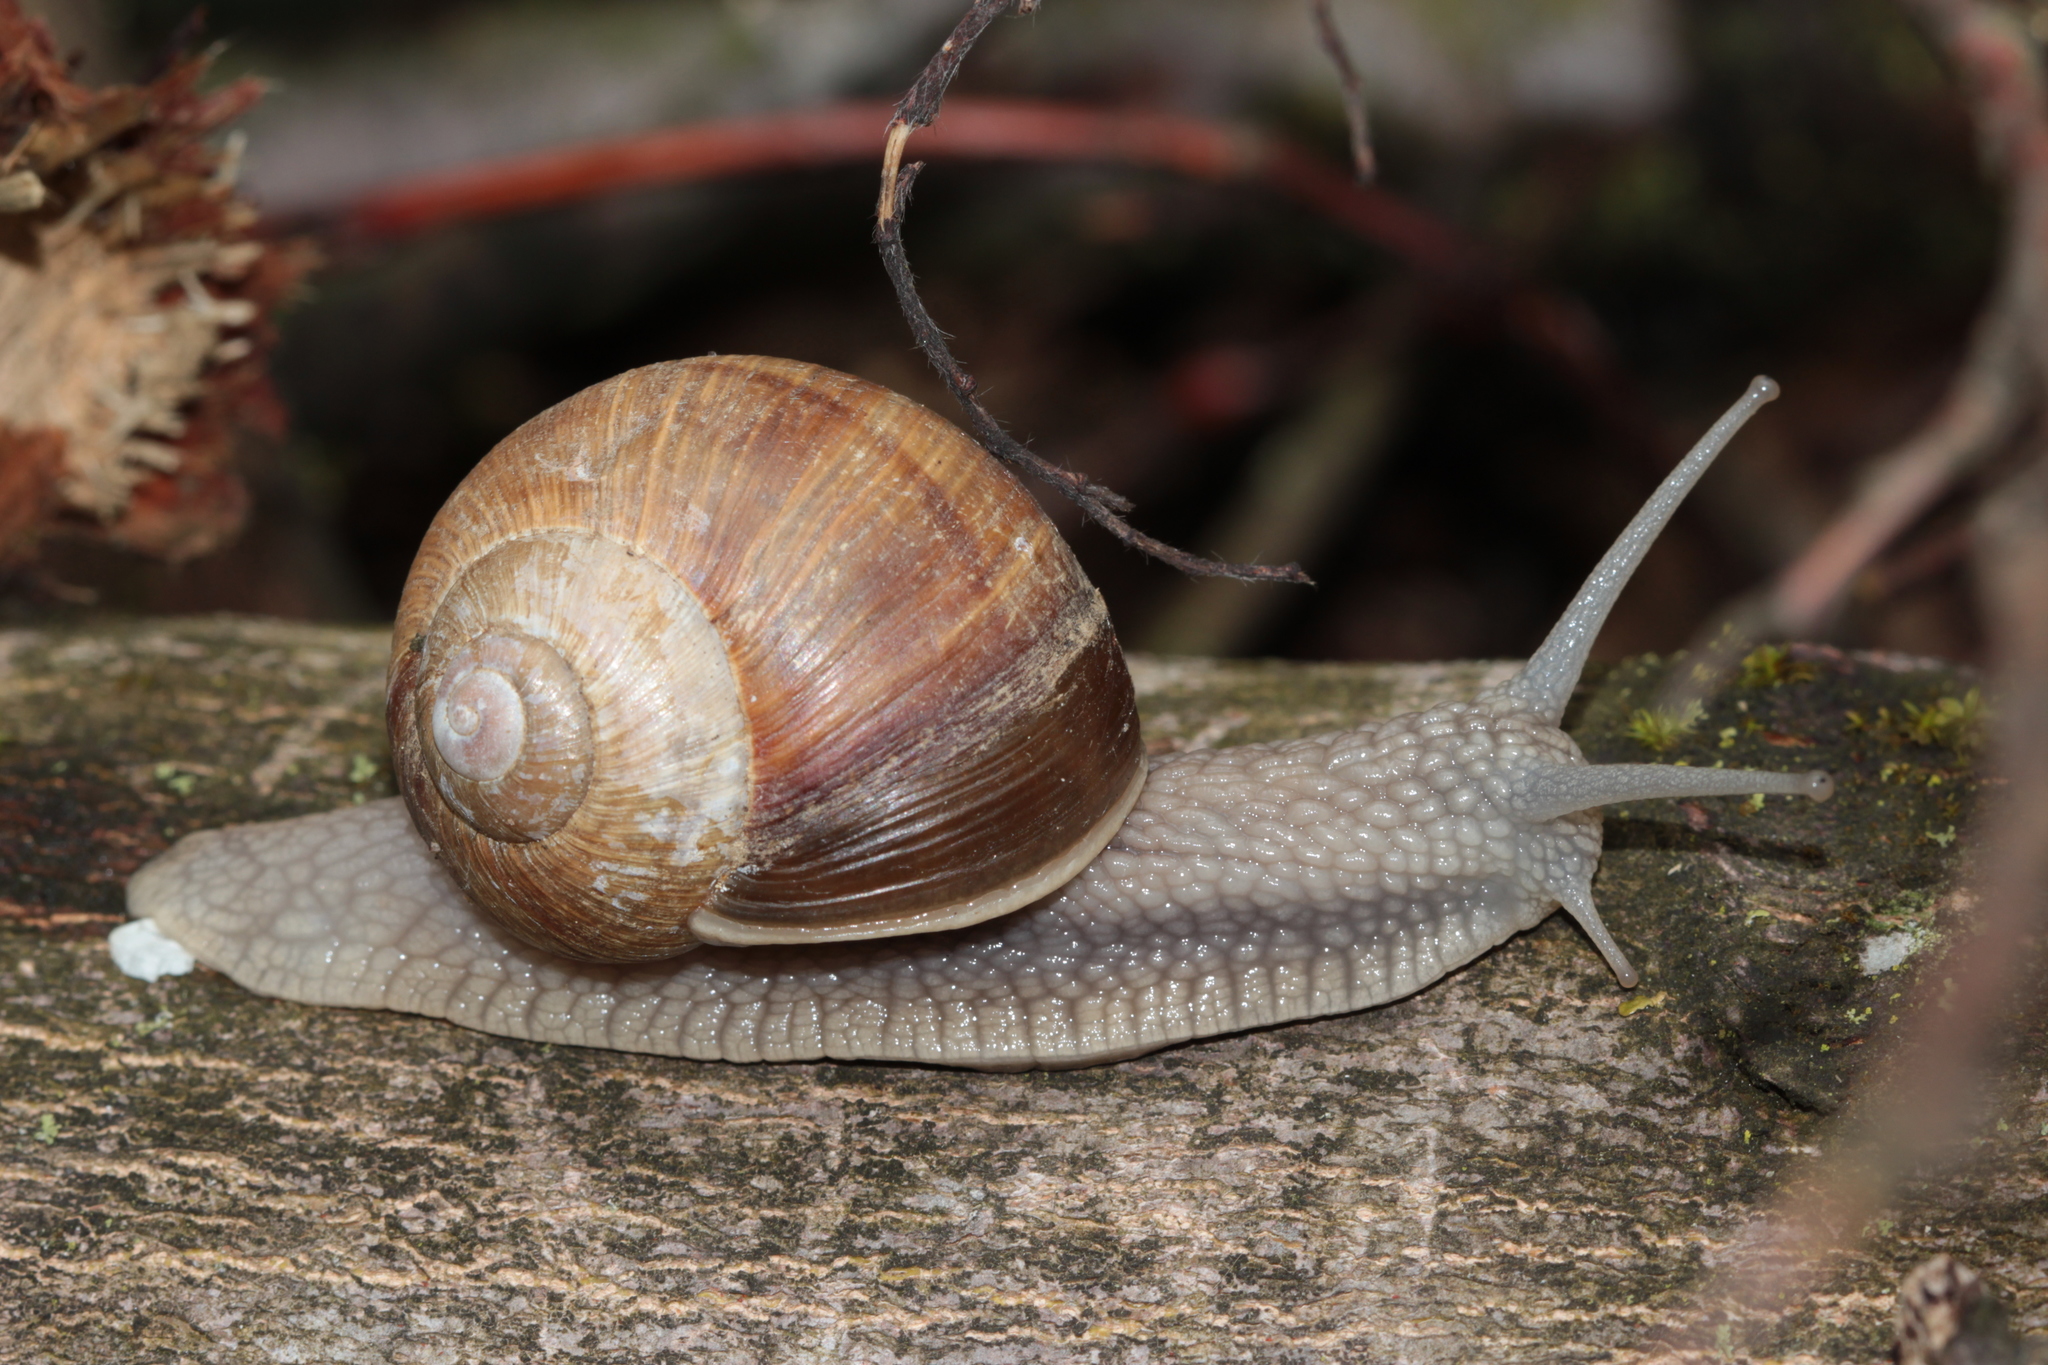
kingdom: Animalia
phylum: Mollusca
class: Gastropoda
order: Stylommatophora
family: Helicidae
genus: Helix
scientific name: Helix pomatia
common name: Roman snail
